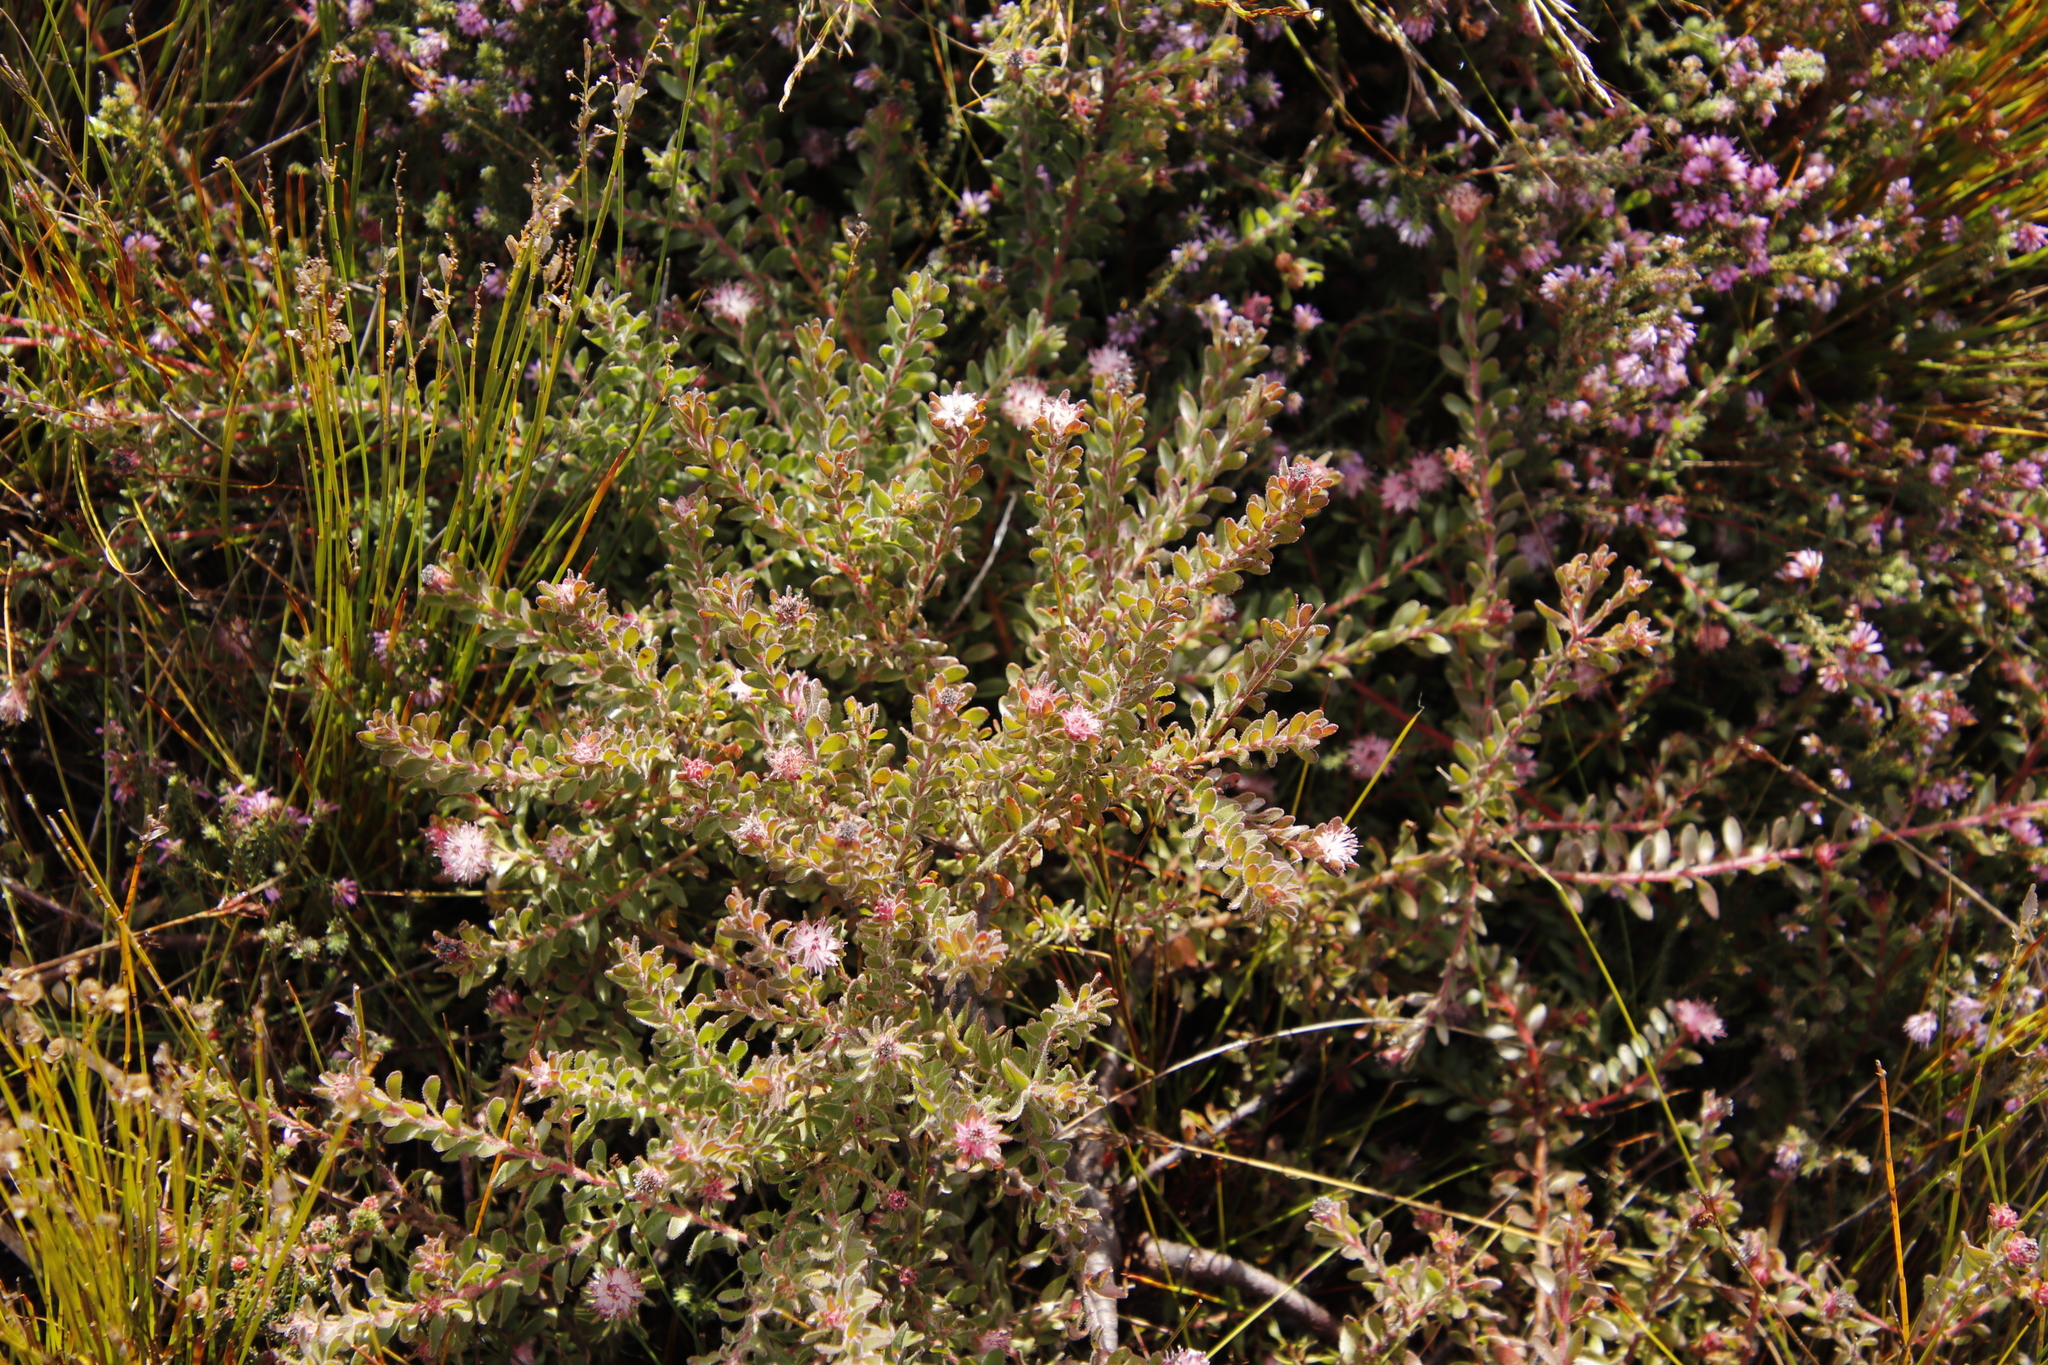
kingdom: Plantae
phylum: Tracheophyta
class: Magnoliopsida
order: Proteales
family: Proteaceae
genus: Diastella
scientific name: Diastella divaricata
